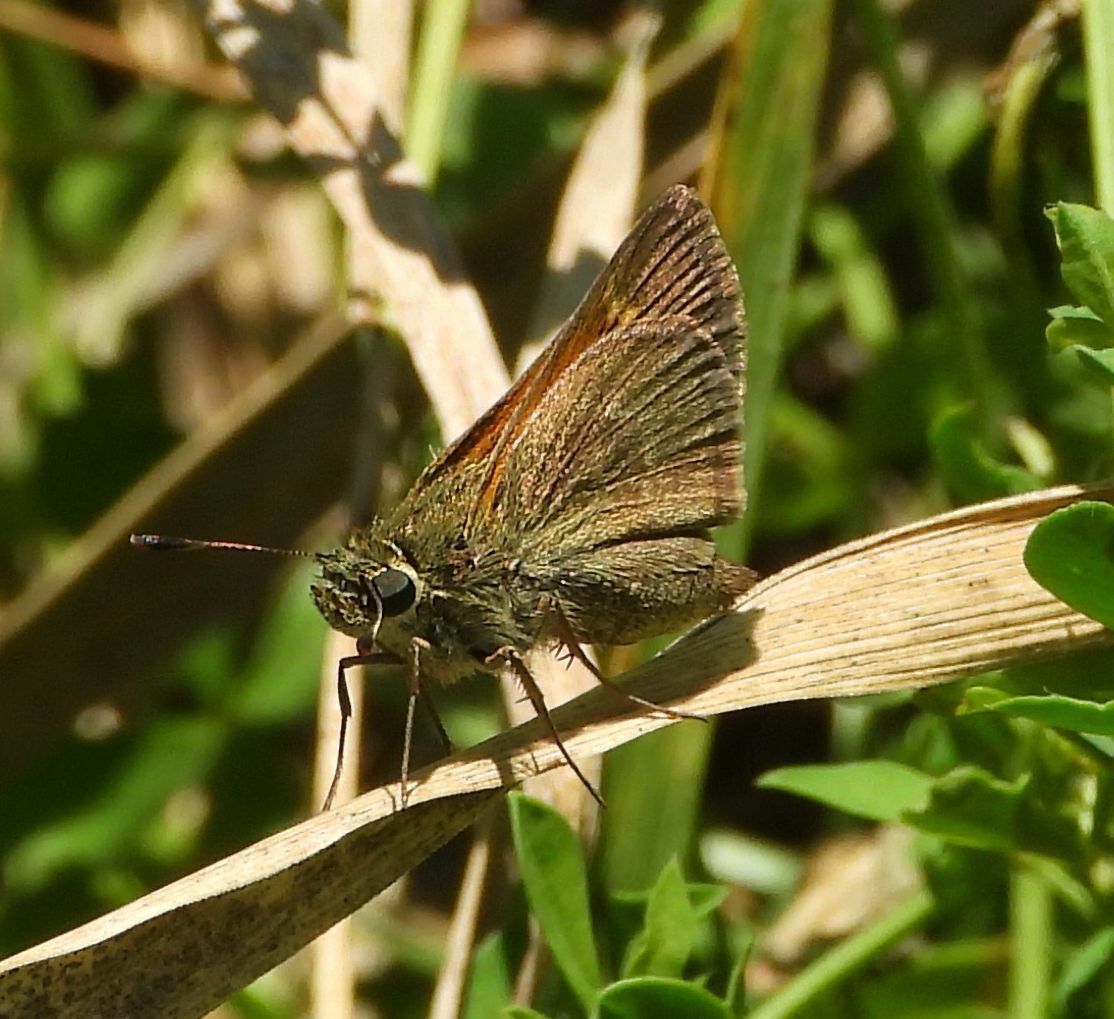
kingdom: Animalia
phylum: Arthropoda
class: Insecta
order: Lepidoptera
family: Hesperiidae
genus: Polites
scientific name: Polites themistocles
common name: Tawny-edged skipper
